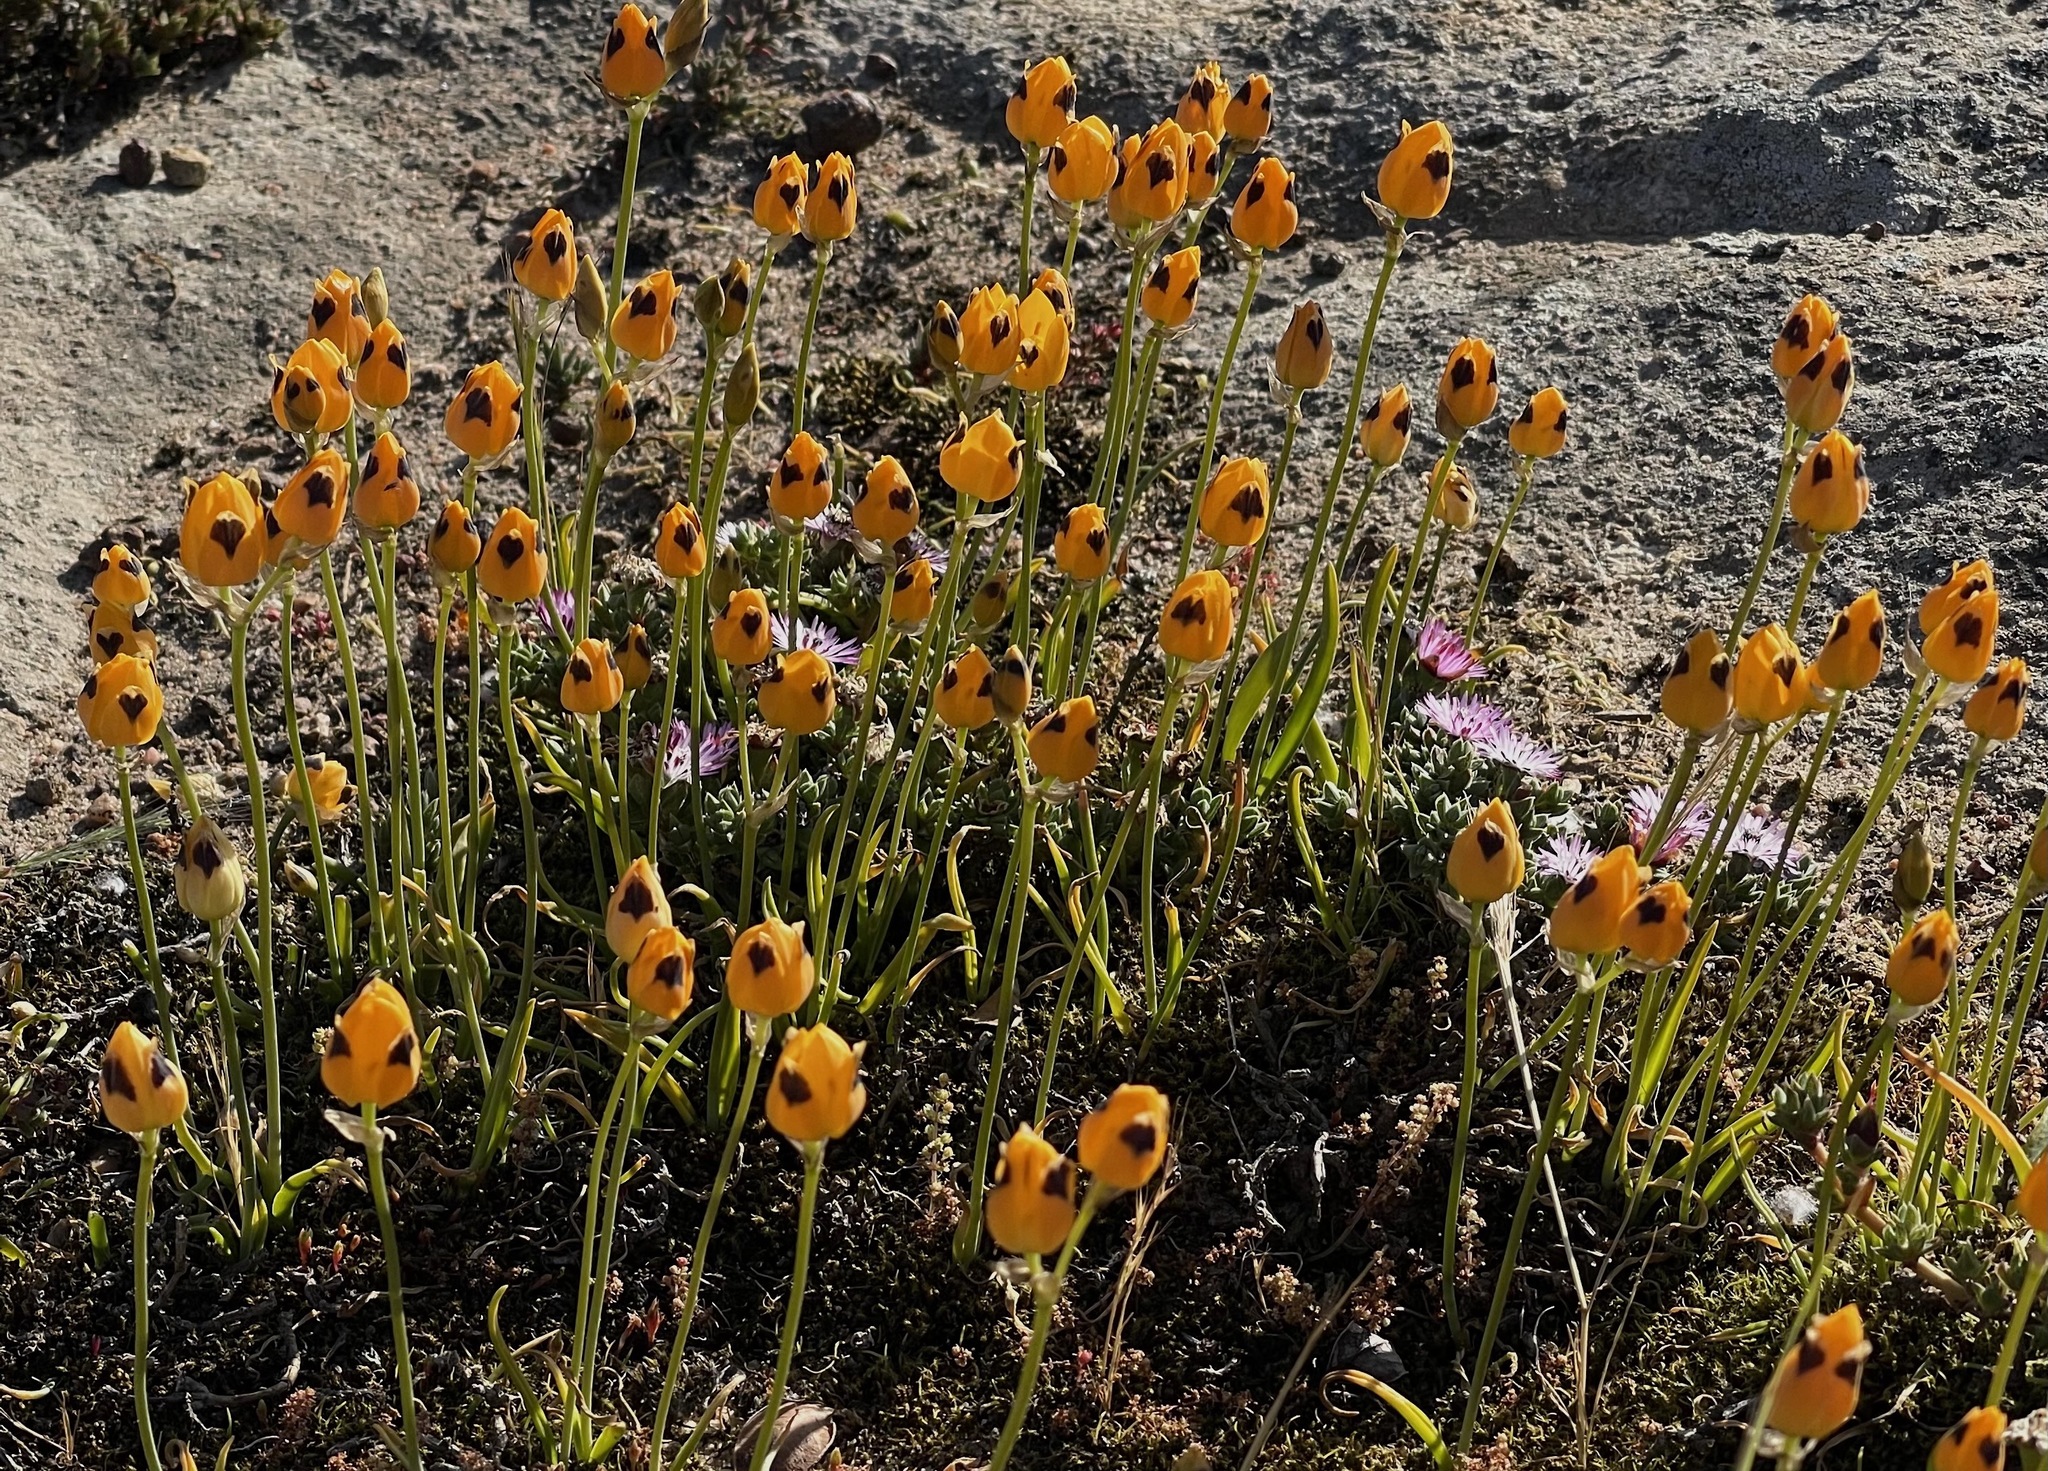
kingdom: Plantae
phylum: Tracheophyta
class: Liliopsida
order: Asparagales
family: Asparagaceae
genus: Ornithogalum
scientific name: Ornithogalum maculatum
